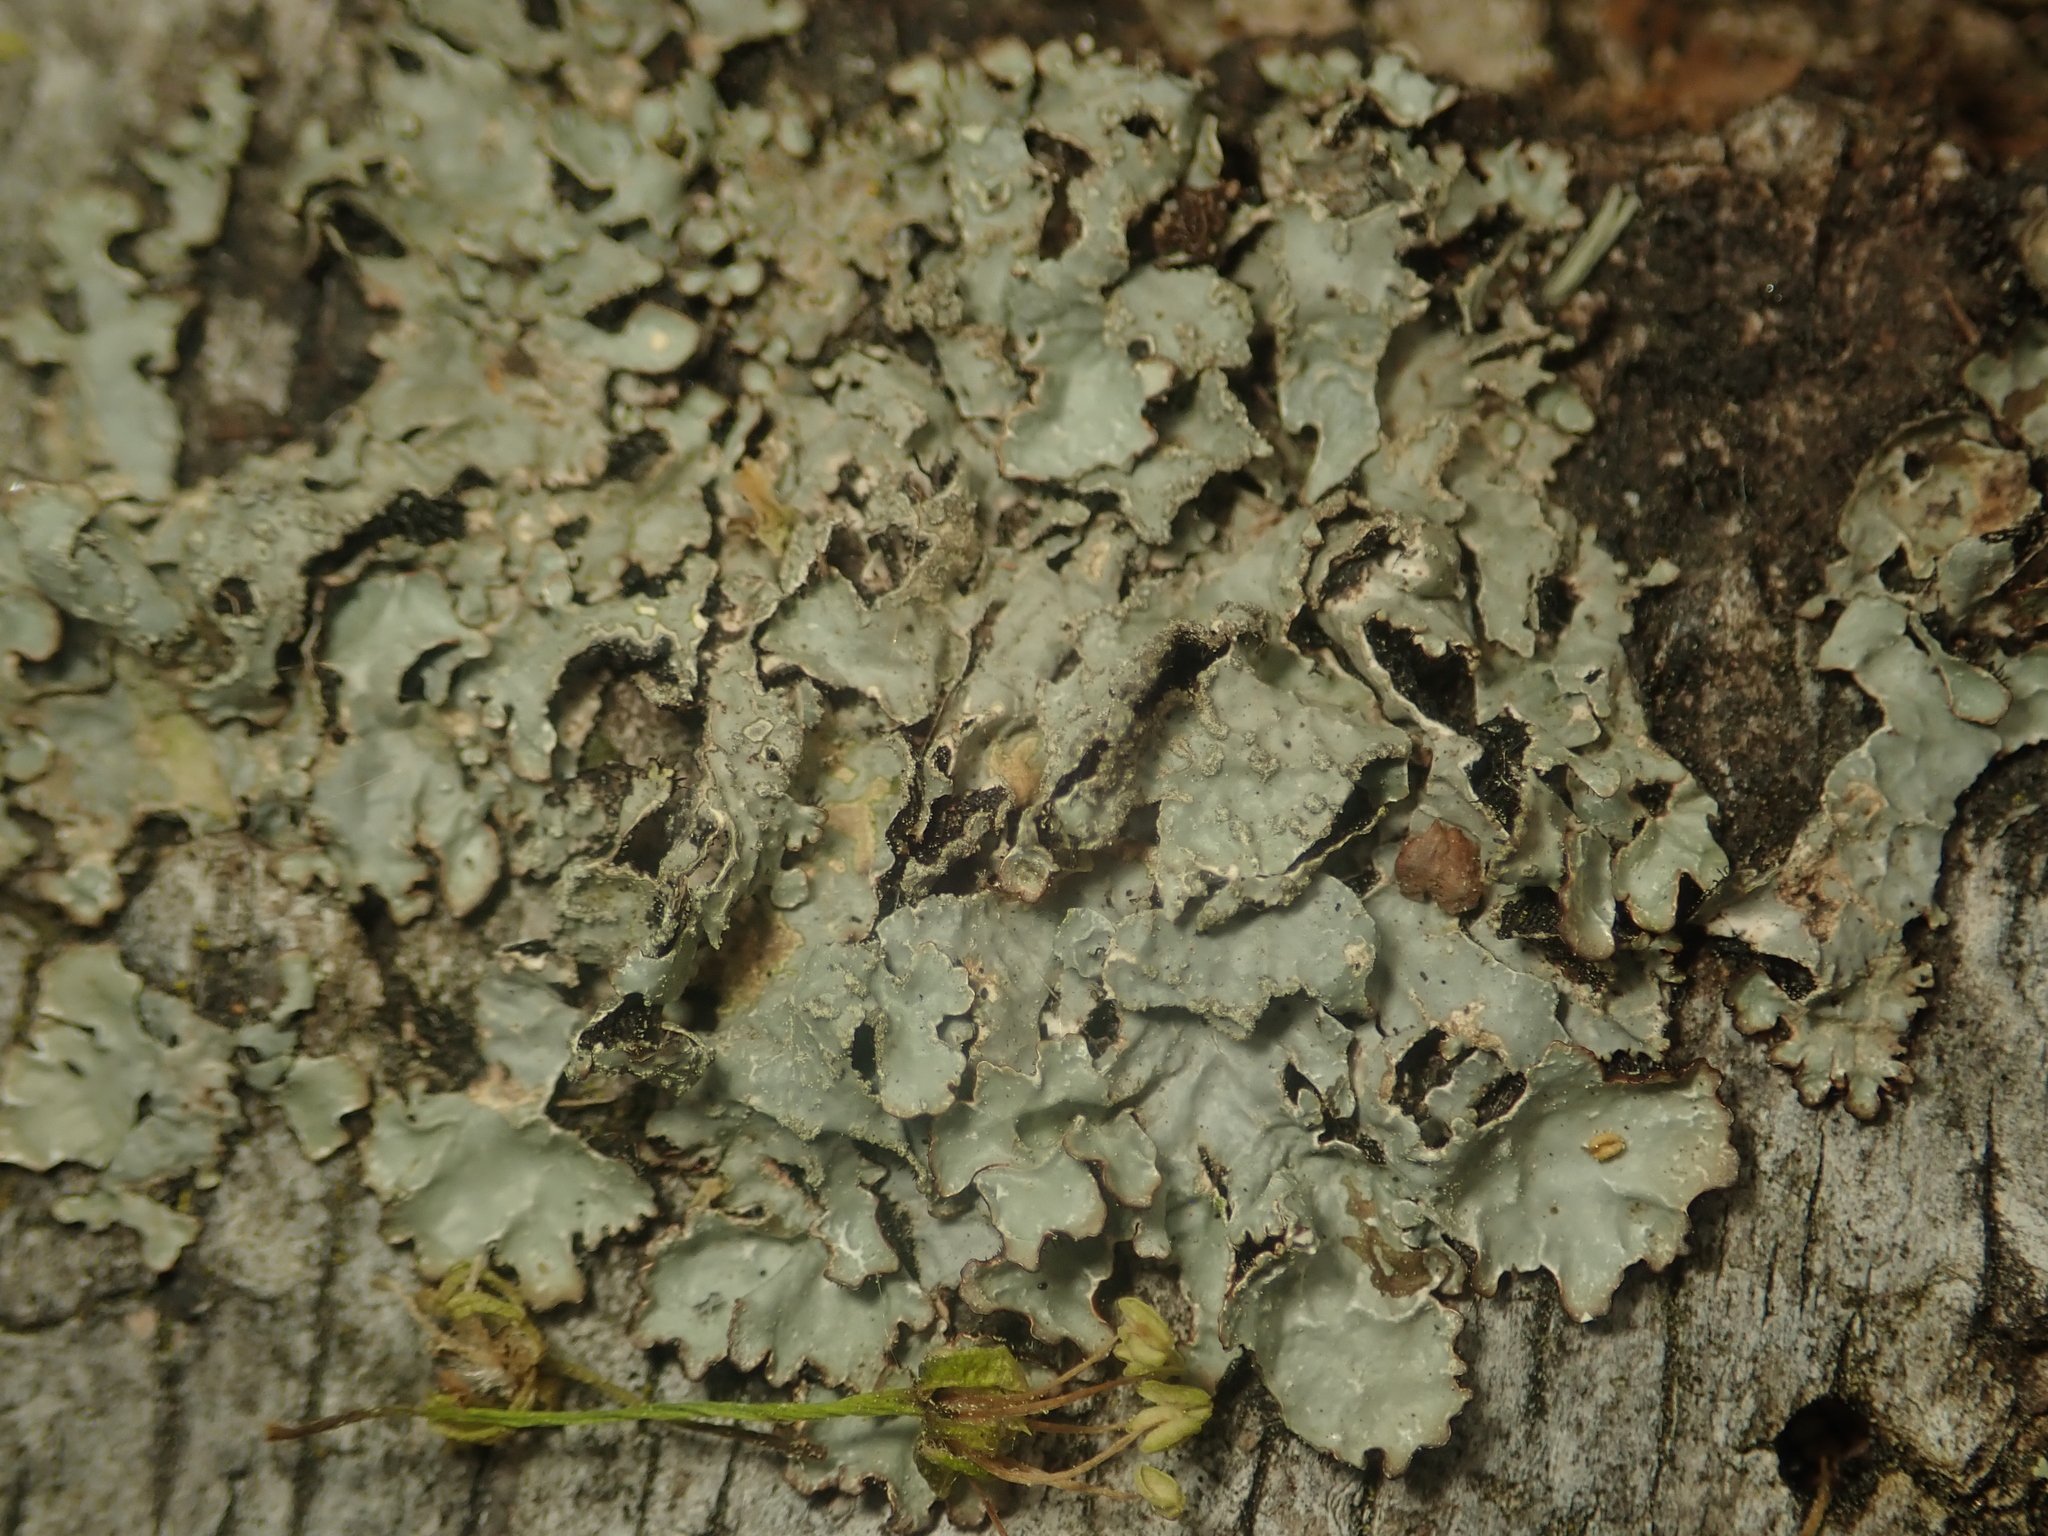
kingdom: Fungi
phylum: Ascomycota
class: Lecanoromycetes
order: Lecanorales
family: Parmeliaceae
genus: Parmelia
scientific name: Parmelia sulcata
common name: Netted shield lichen
